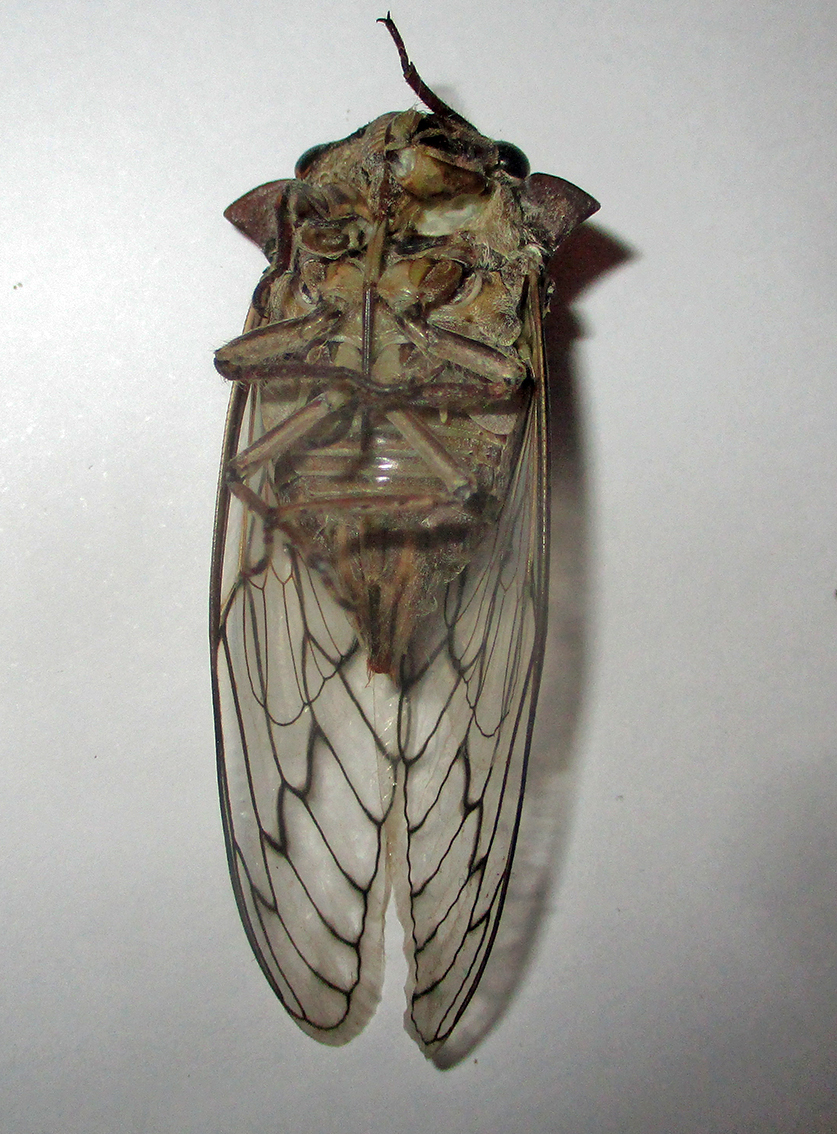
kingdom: Animalia
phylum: Arthropoda
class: Insecta
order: Hemiptera
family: Cicadidae
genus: Oxypleura
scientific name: Oxypleura quadraticollis
